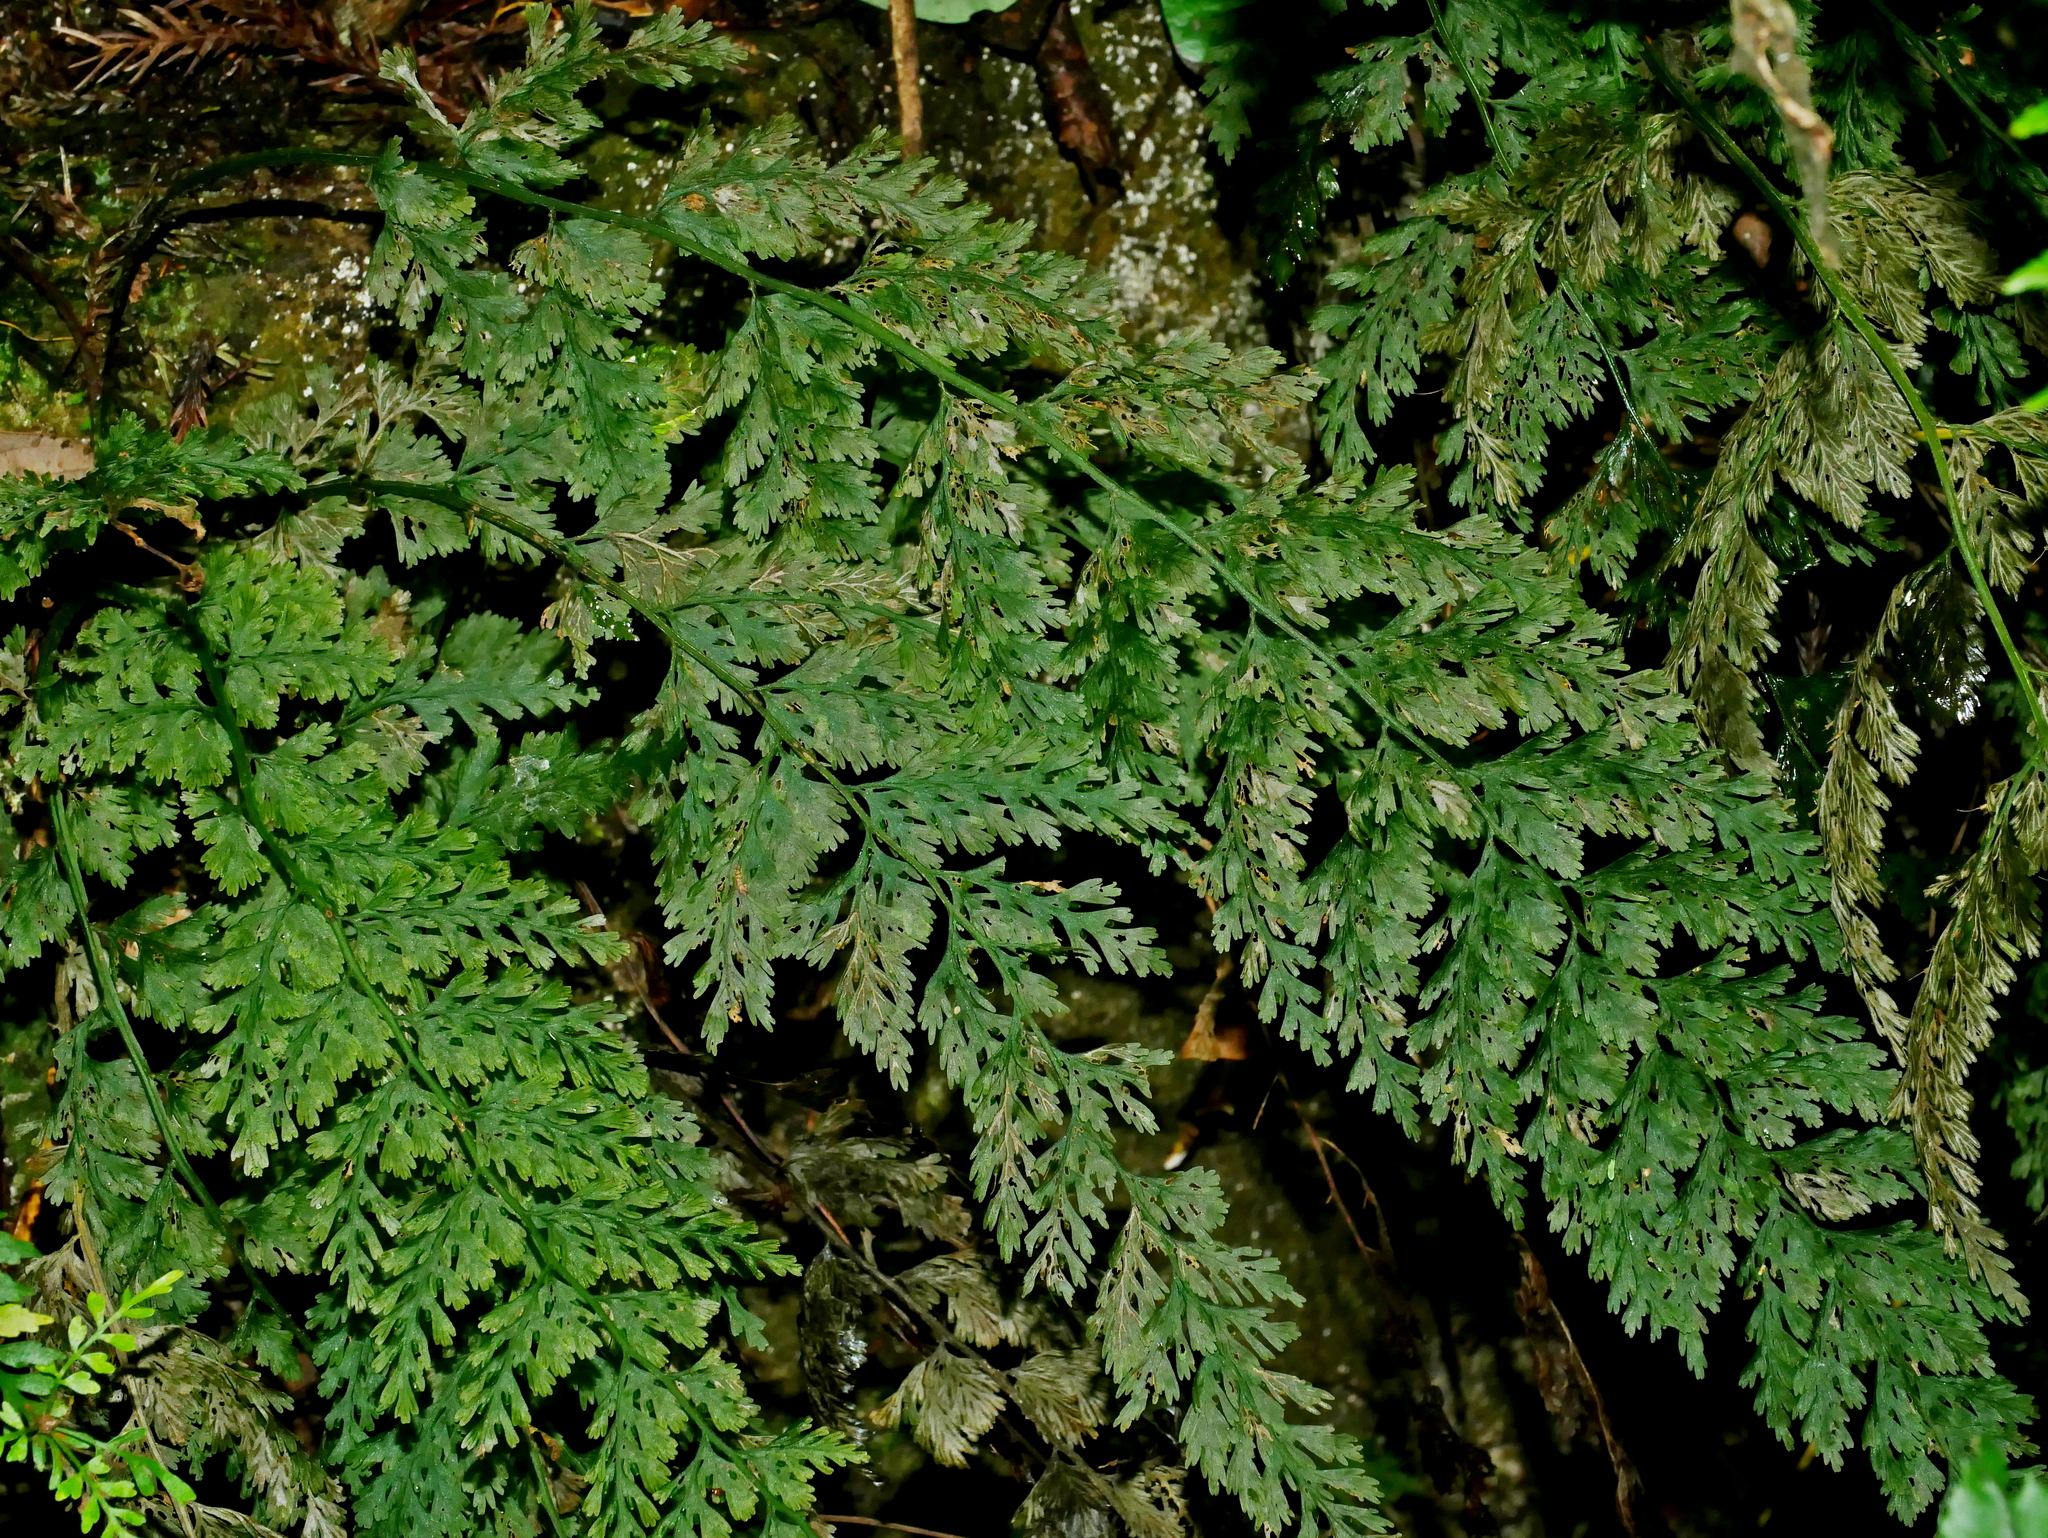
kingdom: Plantae
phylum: Tracheophyta
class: Polypodiopsida
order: Hymenophyllales
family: Hymenophyllaceae
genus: Vandenboschia
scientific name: Vandenboschia striata
